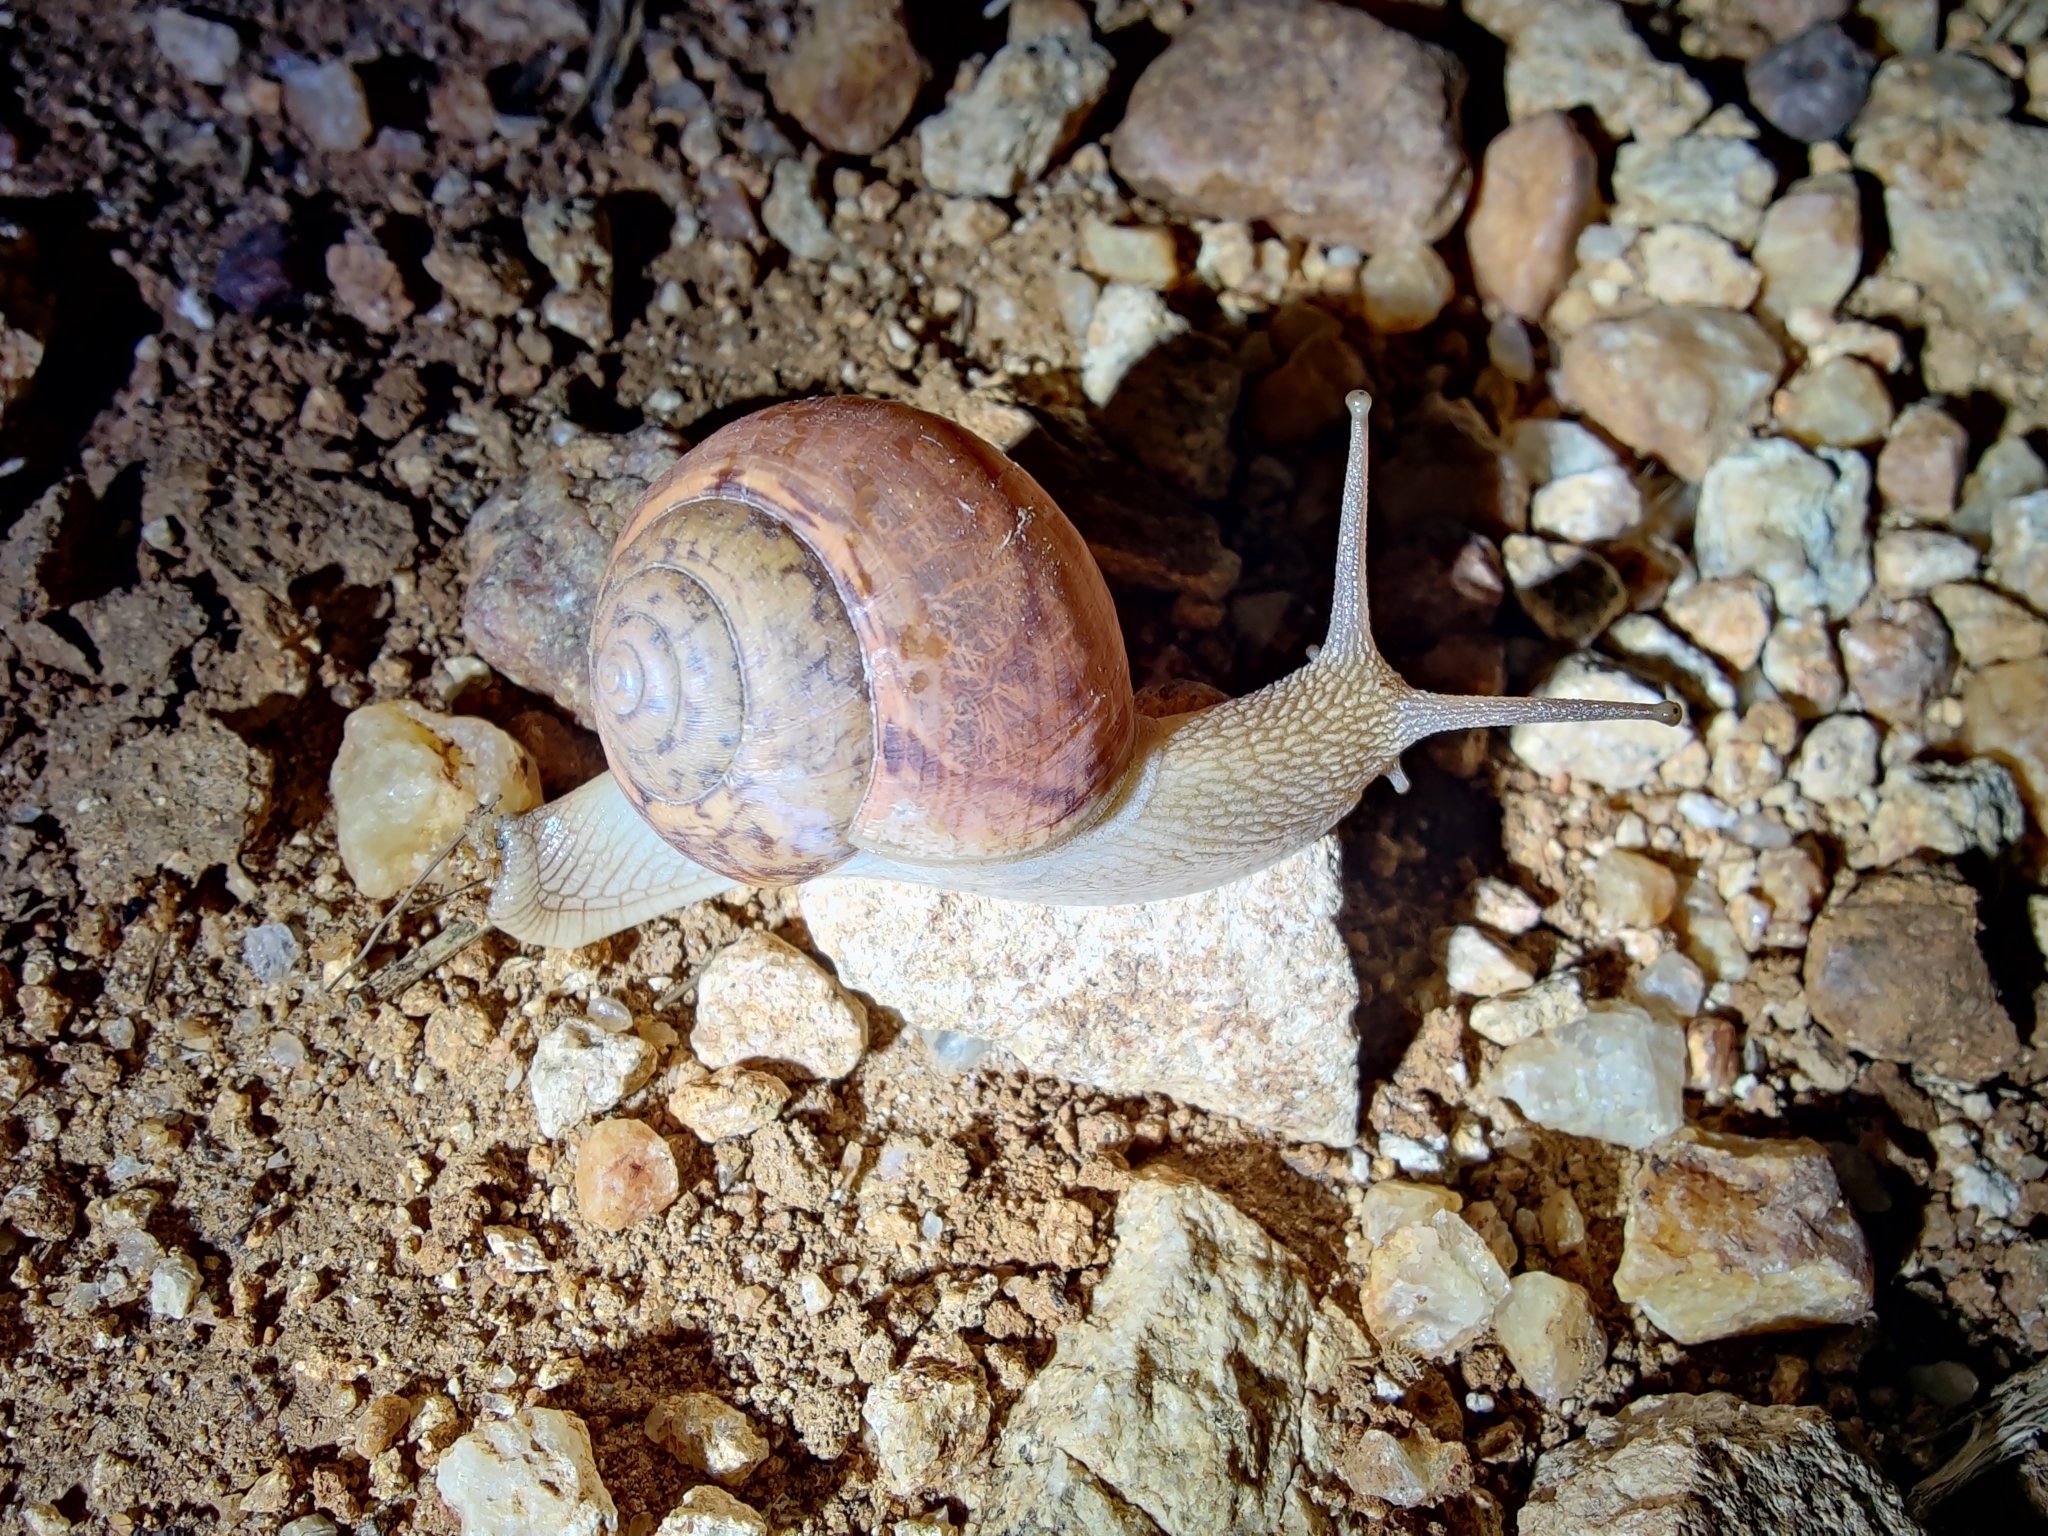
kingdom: Animalia
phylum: Mollusca
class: Gastropoda
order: Stylommatophora
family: Ariophantidae
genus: Ariophanta
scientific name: Ariophanta exilis
